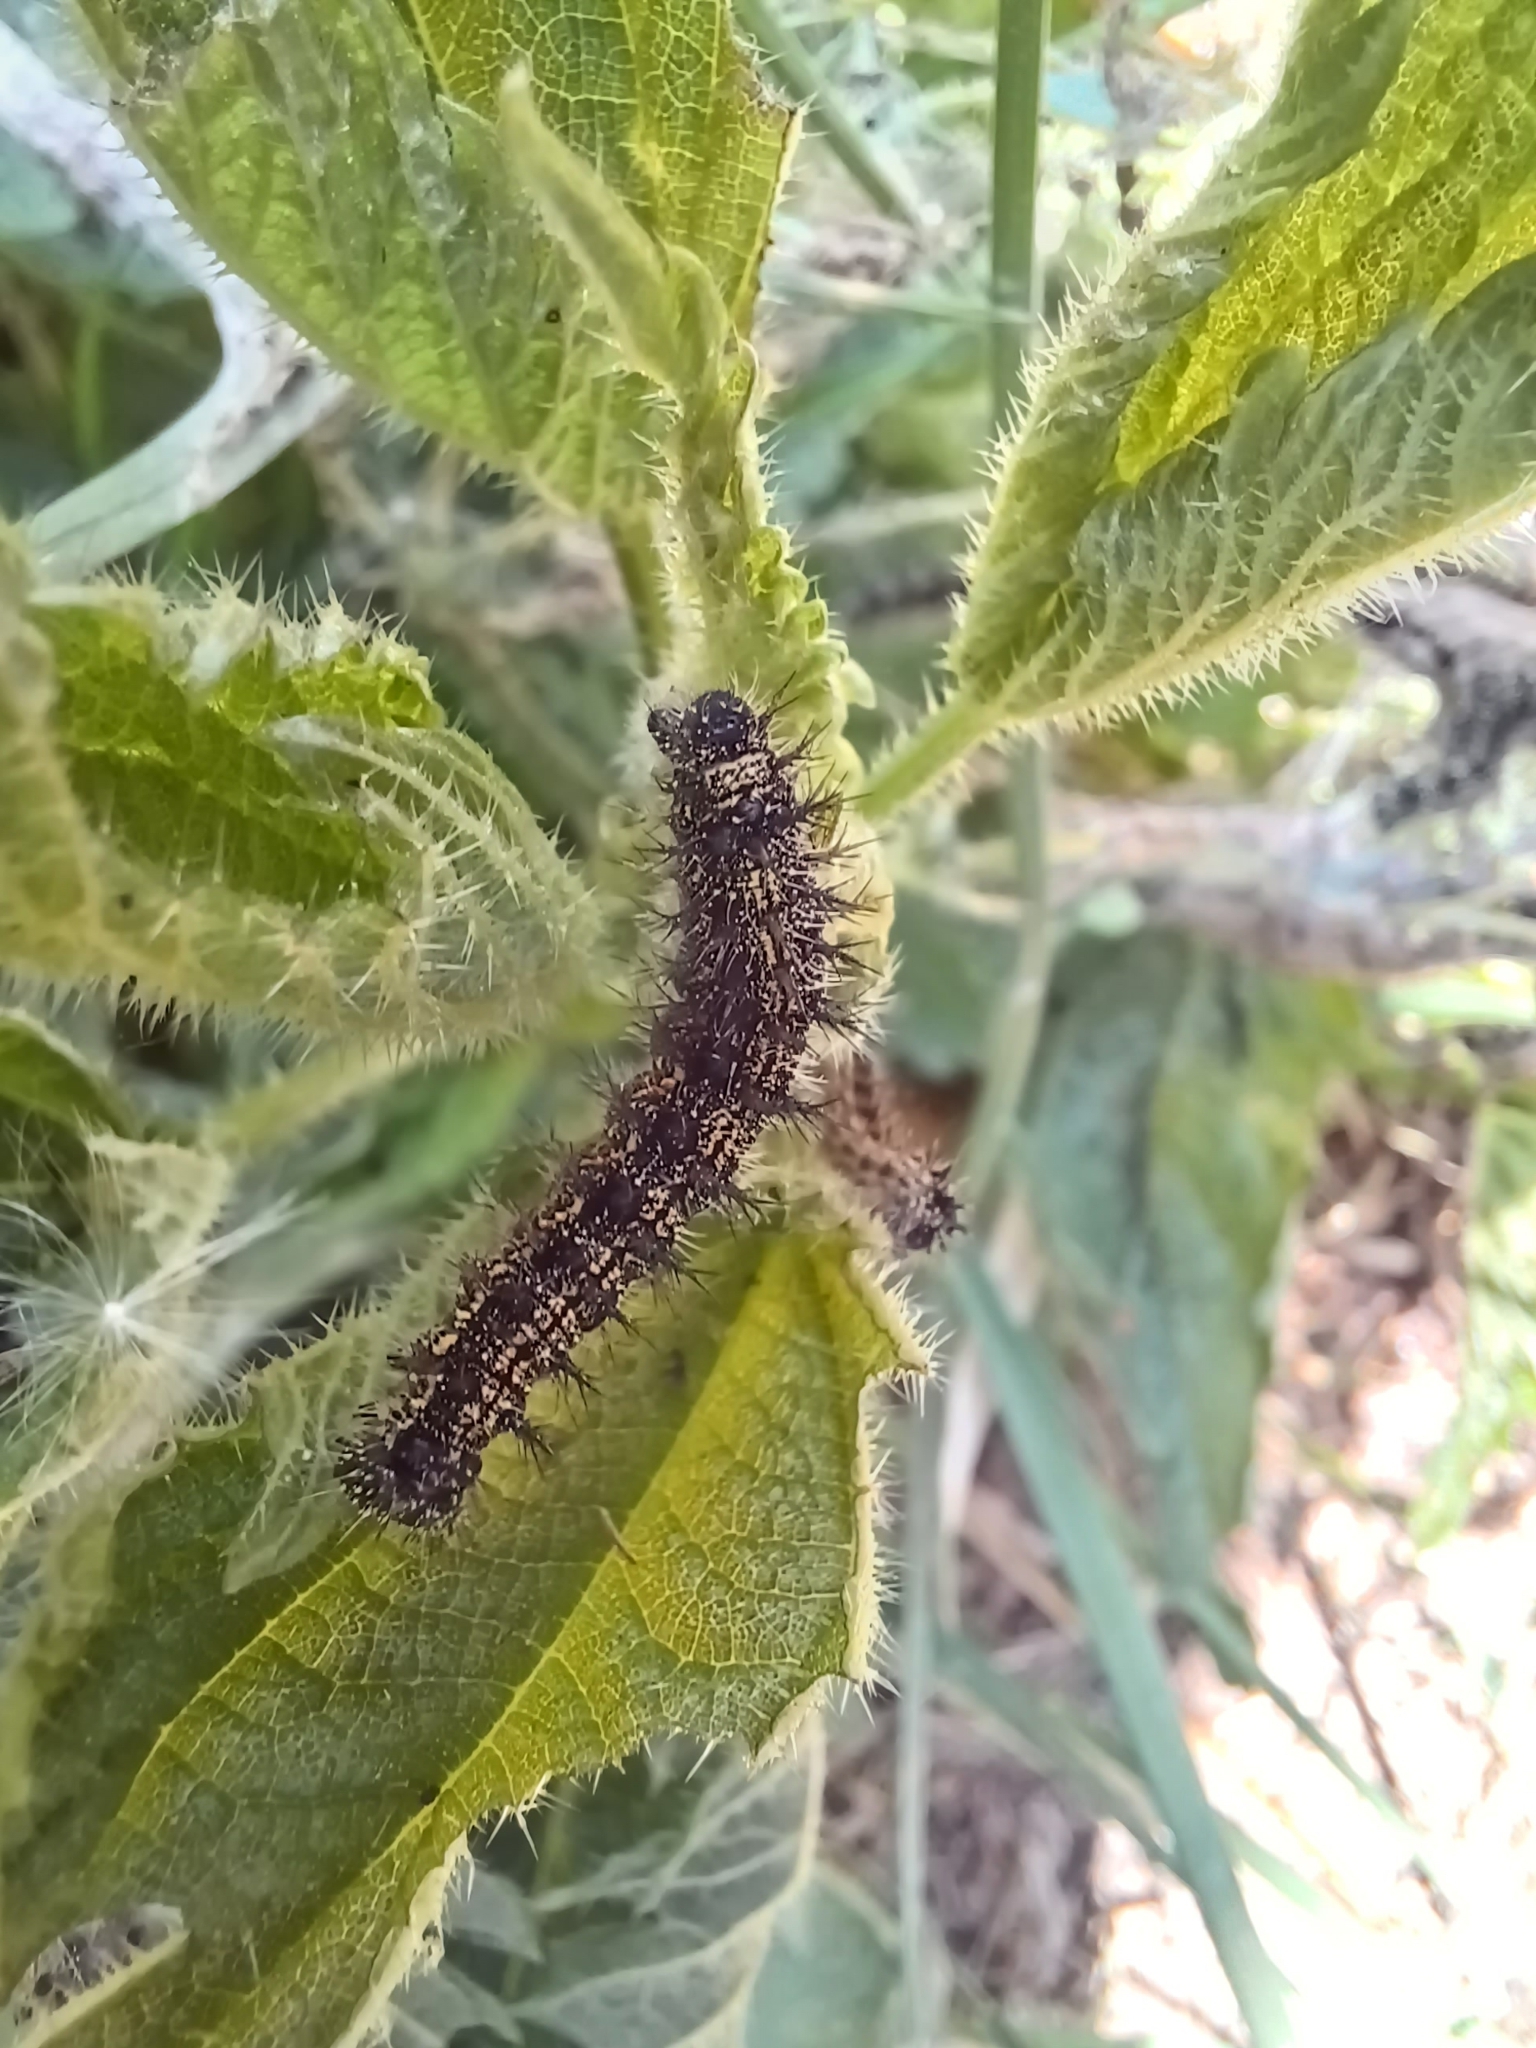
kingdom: Animalia
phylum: Arthropoda
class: Insecta
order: Lepidoptera
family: Nymphalidae
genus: Aglais
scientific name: Aglais urticae
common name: Small tortoiseshell
